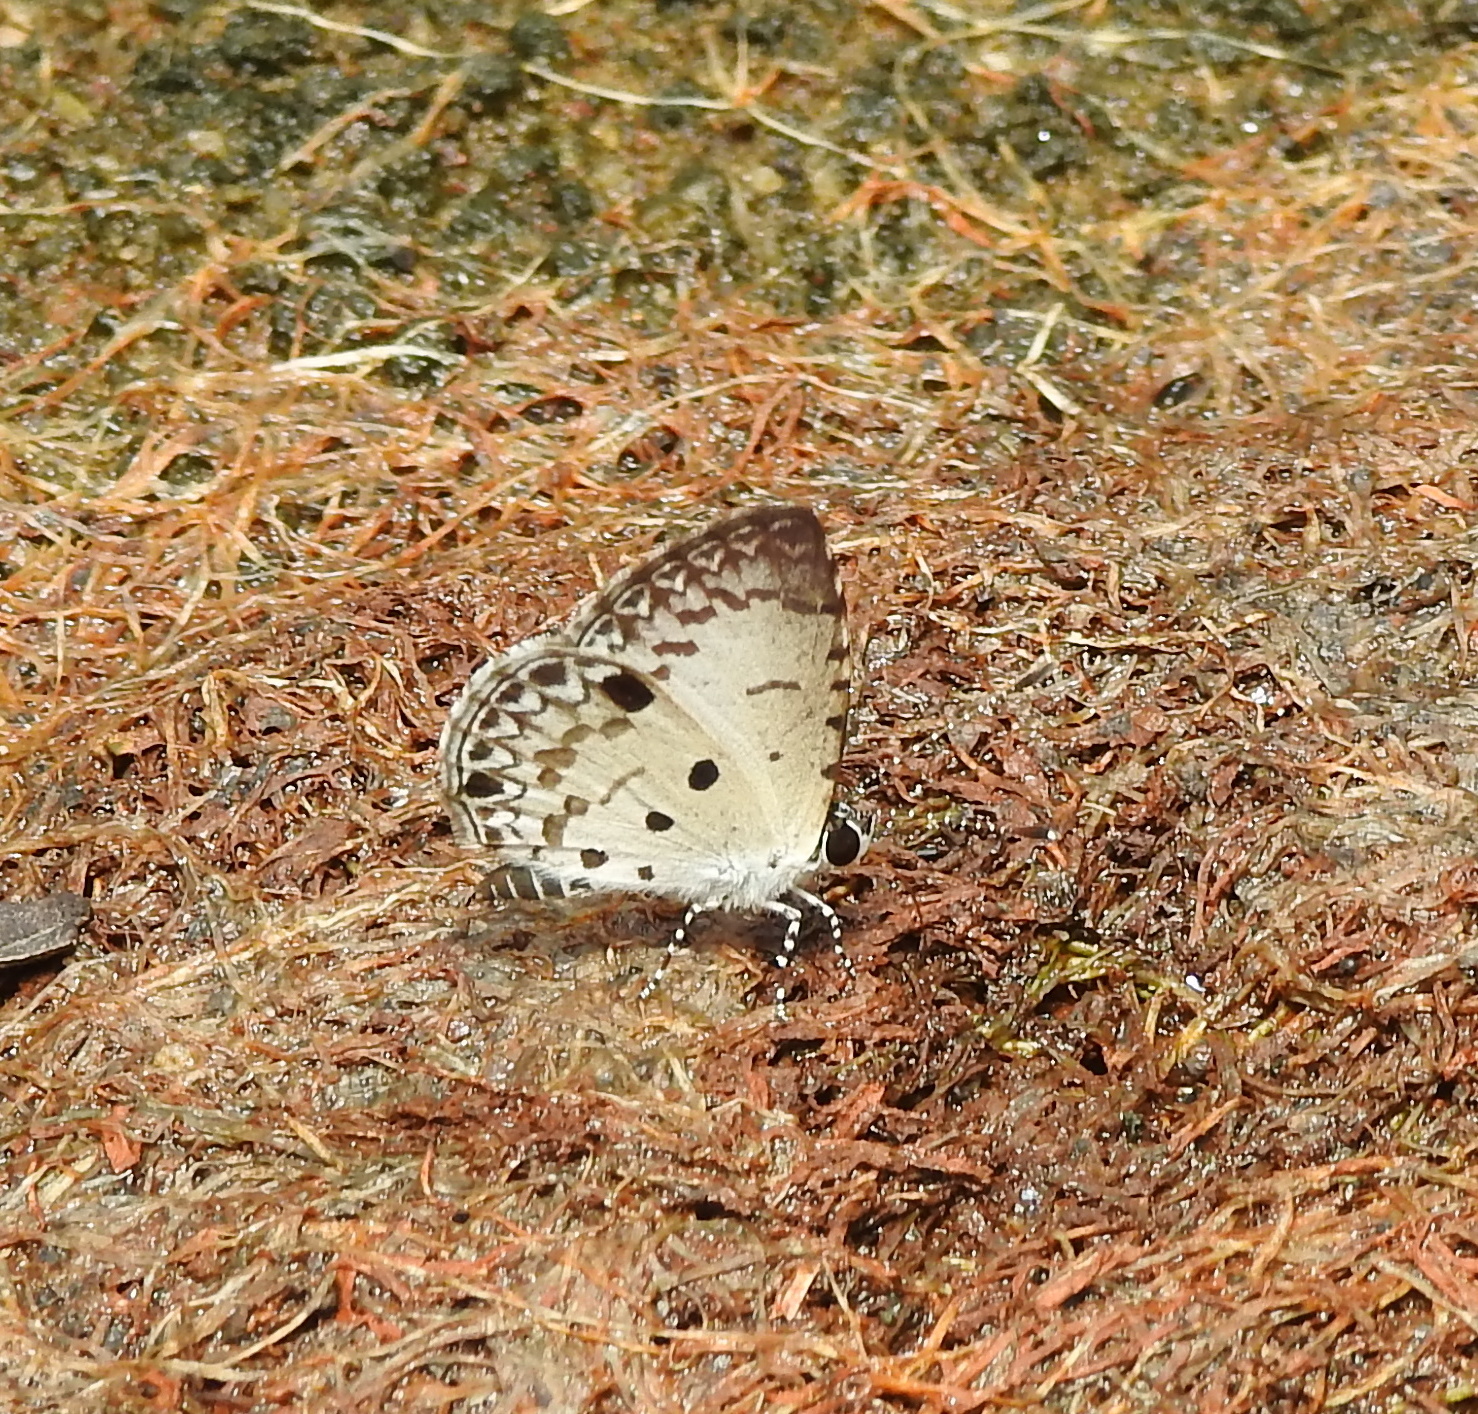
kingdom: Animalia
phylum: Arthropoda
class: Insecta
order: Lepidoptera
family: Lycaenidae
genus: Megisba
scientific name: Megisba malaya
